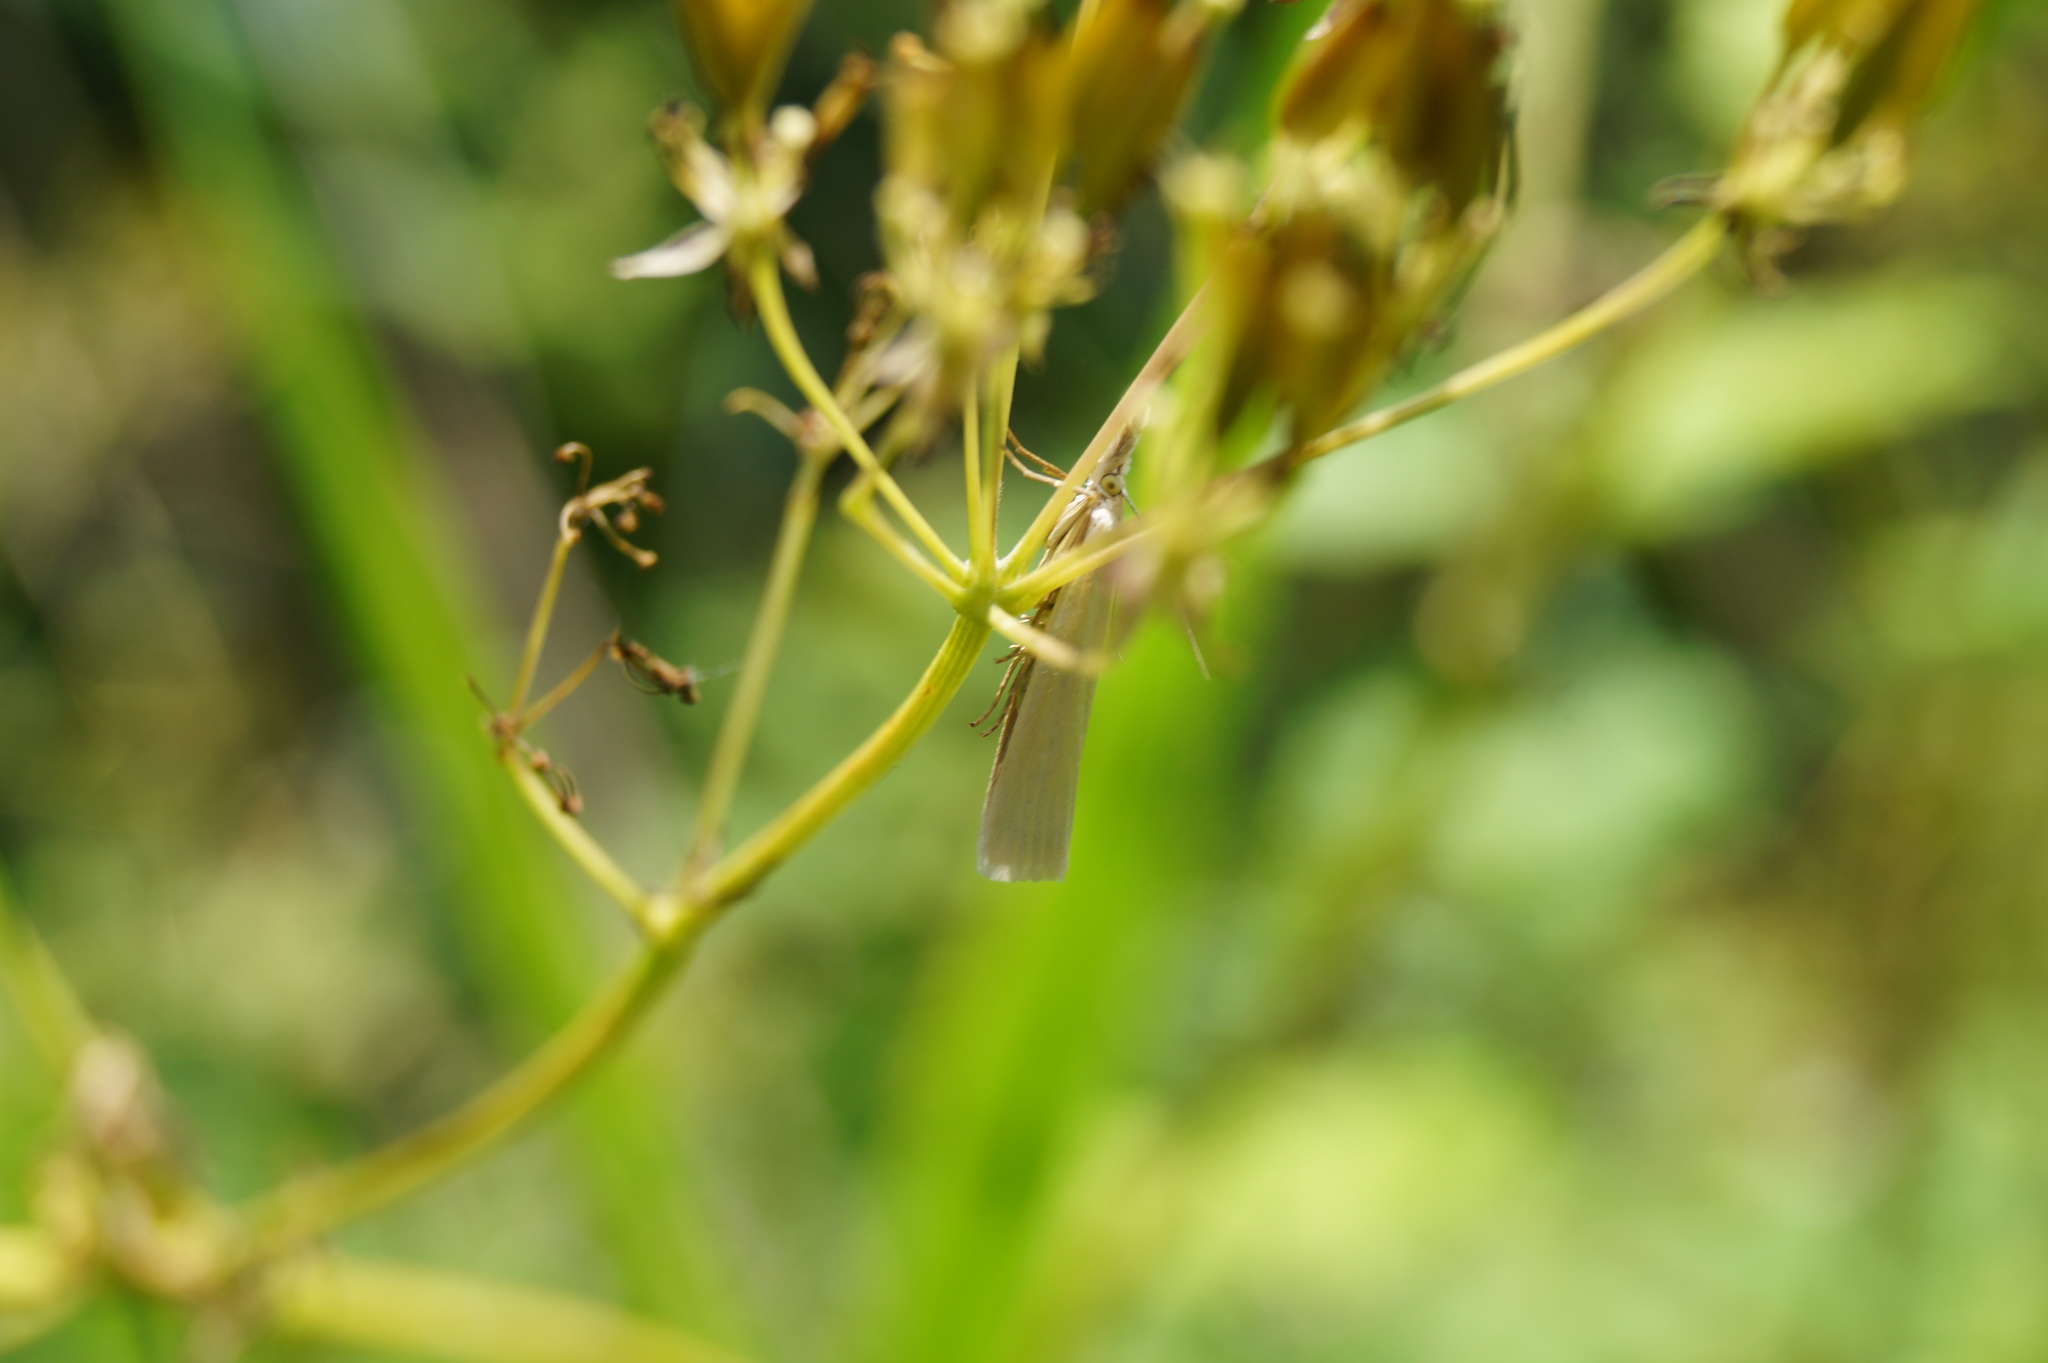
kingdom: Animalia
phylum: Arthropoda
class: Insecta
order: Lepidoptera
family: Crambidae
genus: Crambus
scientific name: Crambus perlellus
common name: Yellow satin veneer
